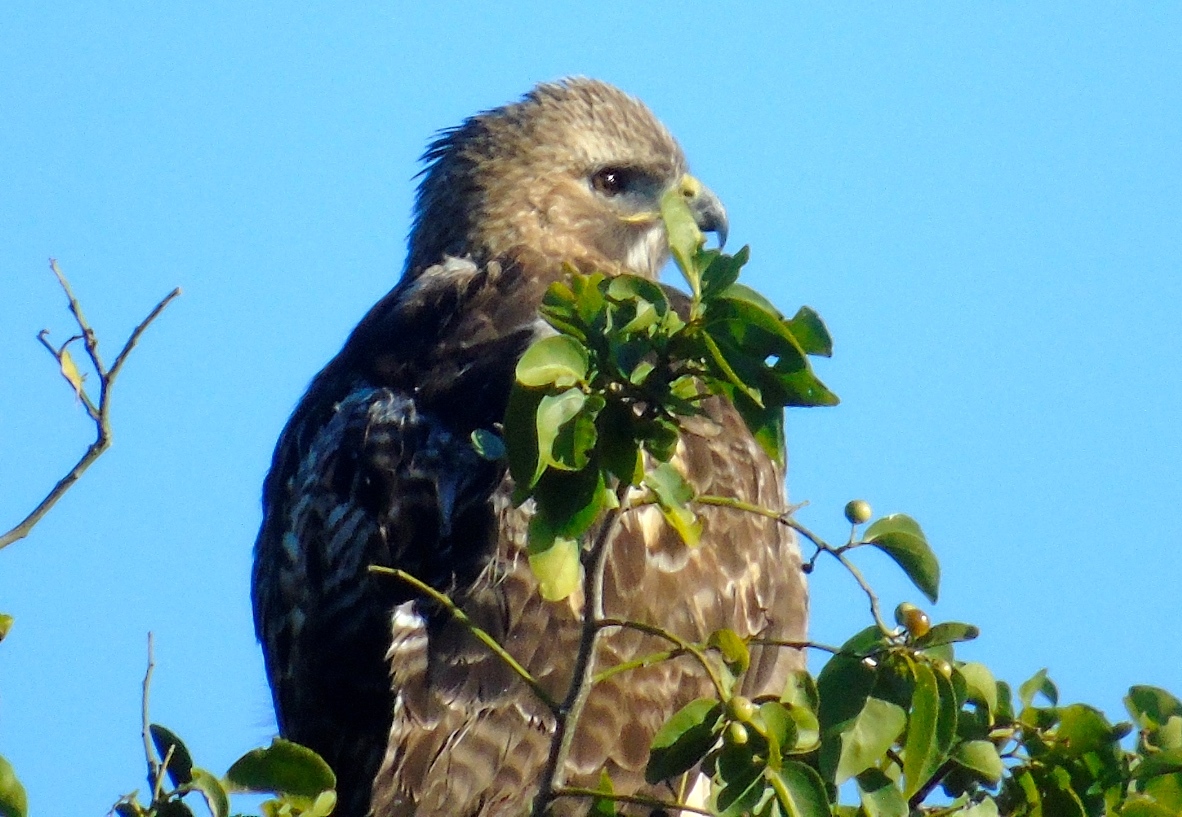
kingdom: Animalia
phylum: Chordata
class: Aves
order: Accipitriformes
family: Accipitridae
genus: Buteo
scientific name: Buteo jamaicensis
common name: Red-tailed hawk
